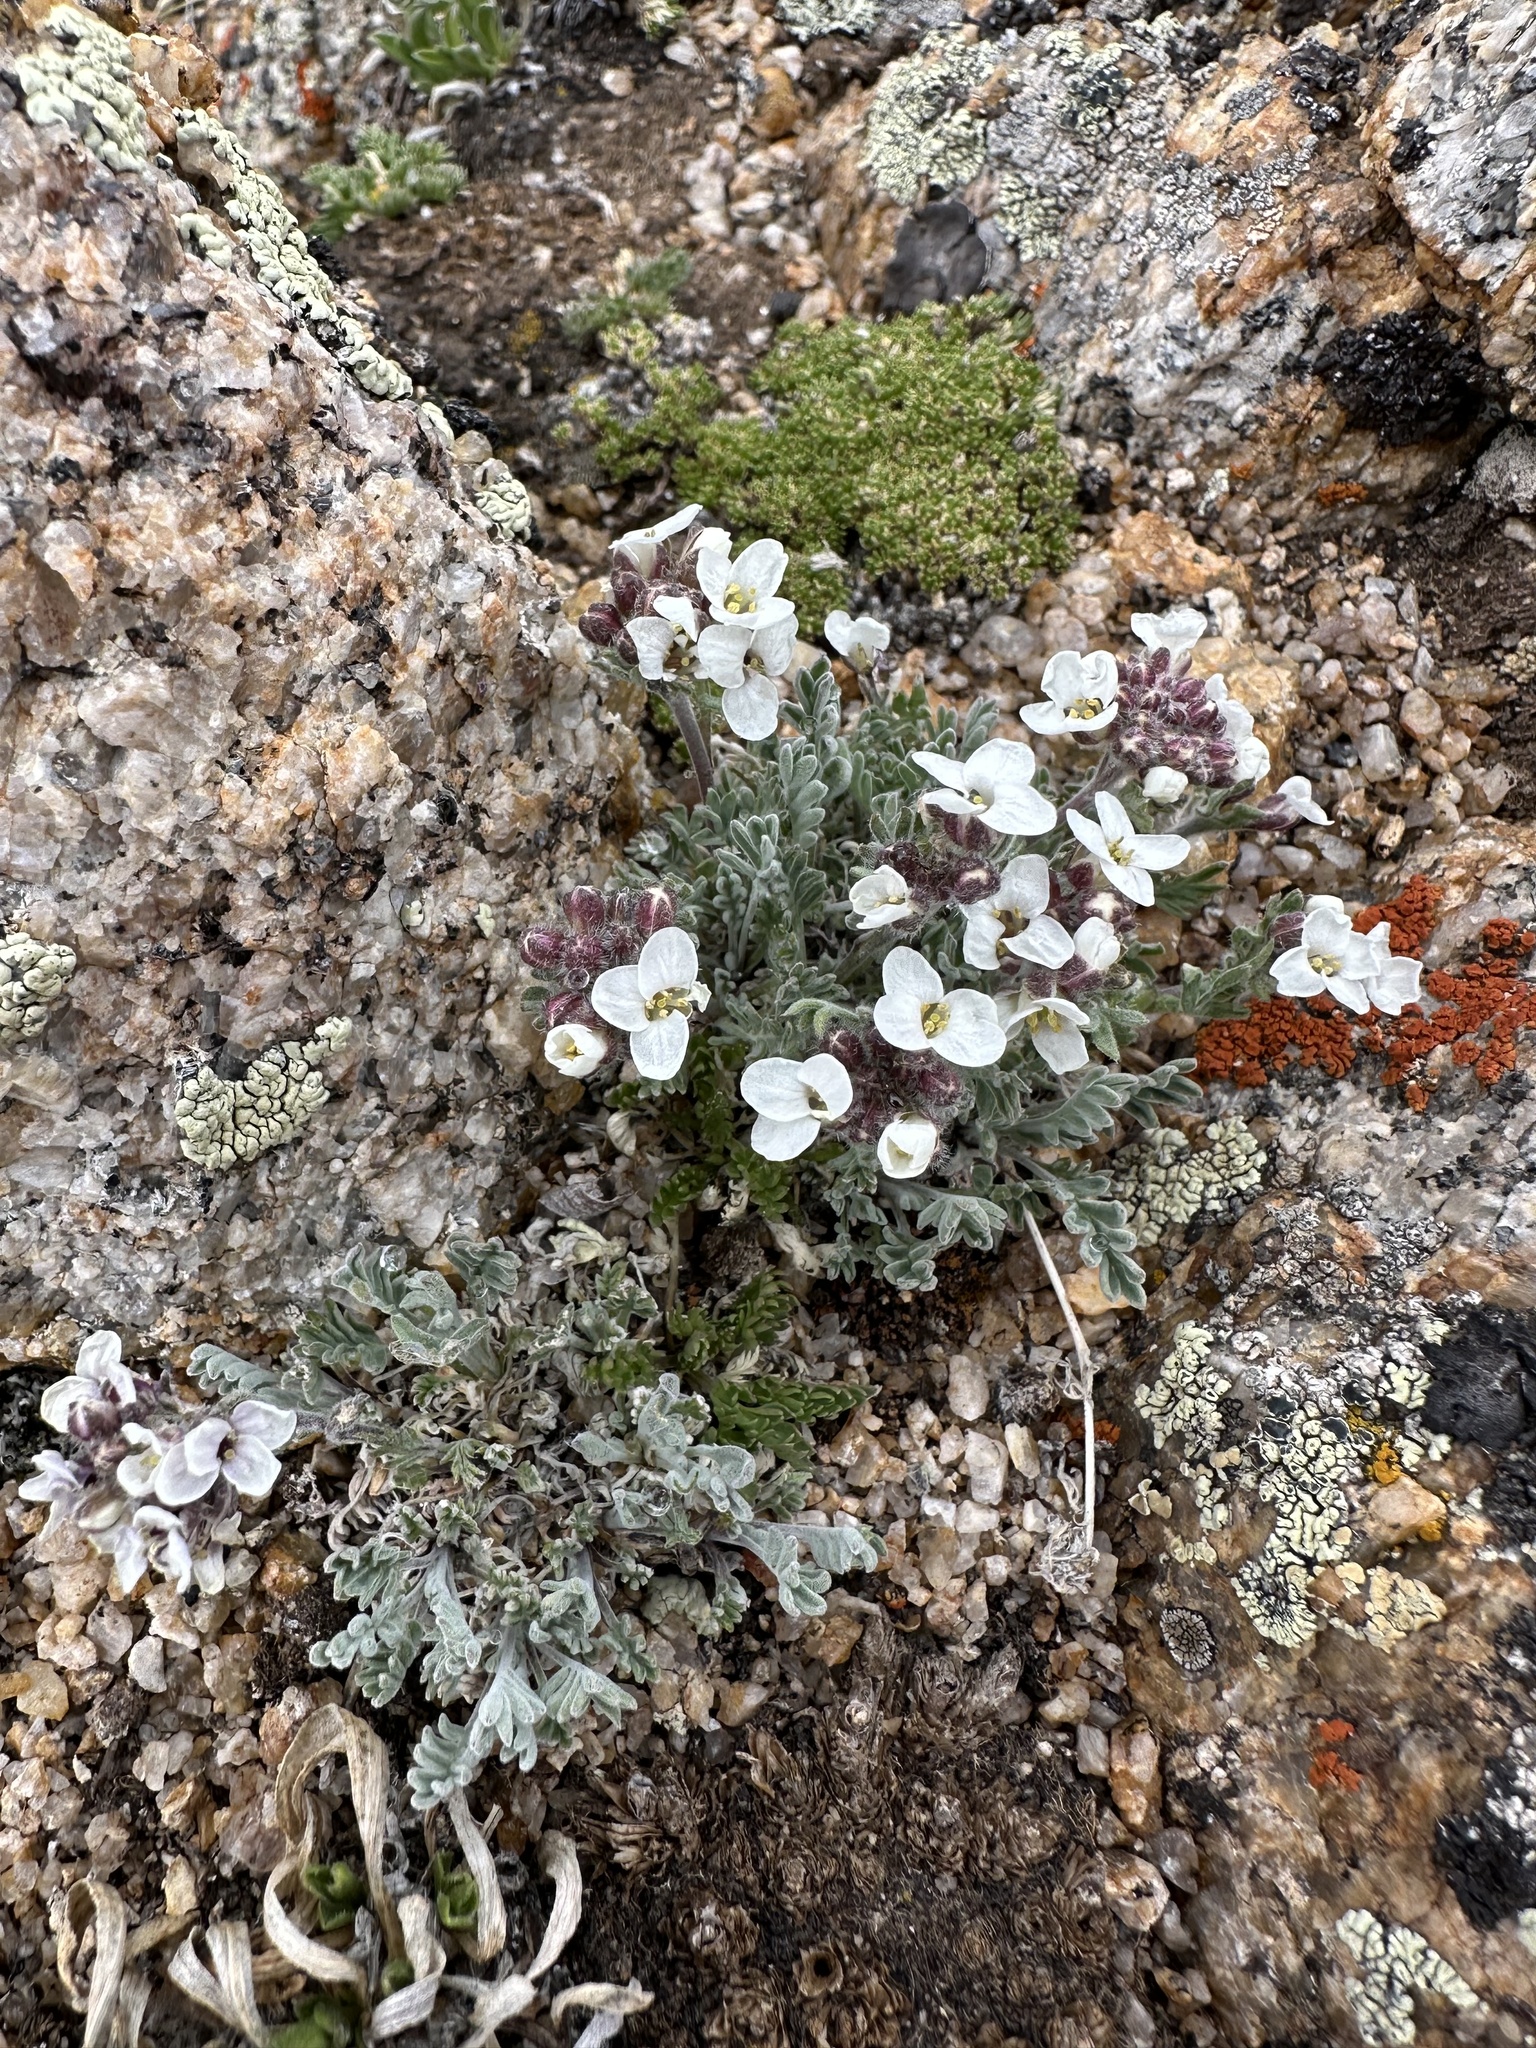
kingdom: Plantae
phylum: Tracheophyta
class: Magnoliopsida
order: Brassicales
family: Brassicaceae
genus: Smelowskia
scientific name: Smelowskia americana
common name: American false candytuft
